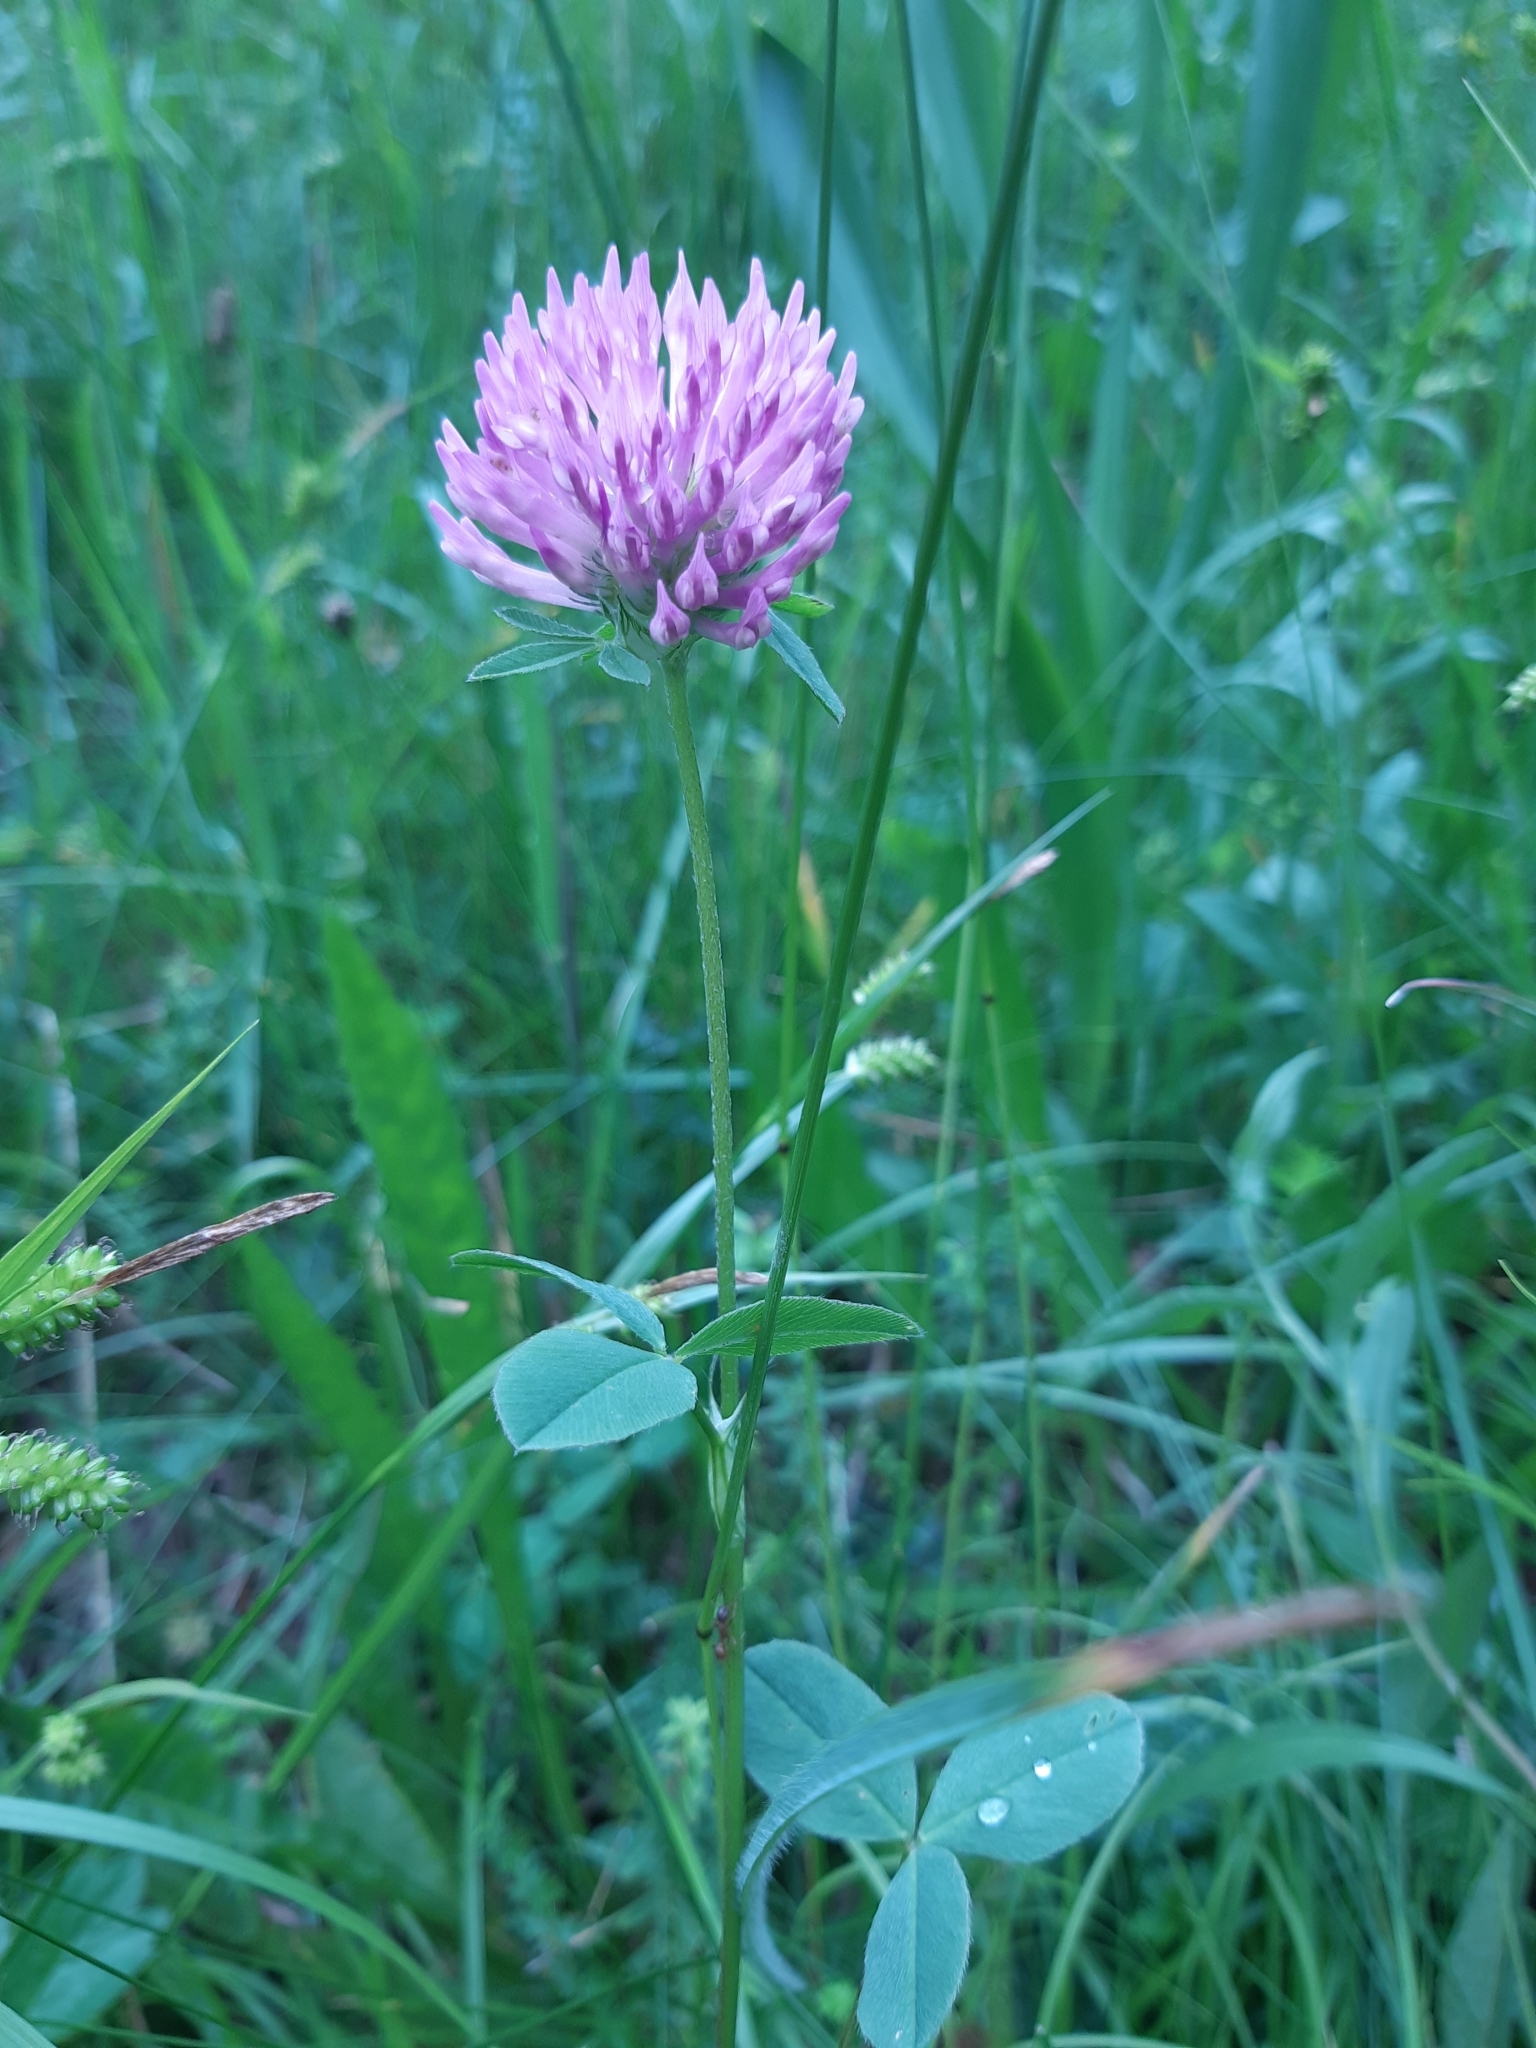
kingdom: Plantae
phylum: Tracheophyta
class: Magnoliopsida
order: Fabales
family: Fabaceae
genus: Trifolium
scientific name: Trifolium pratense
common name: Red clover
